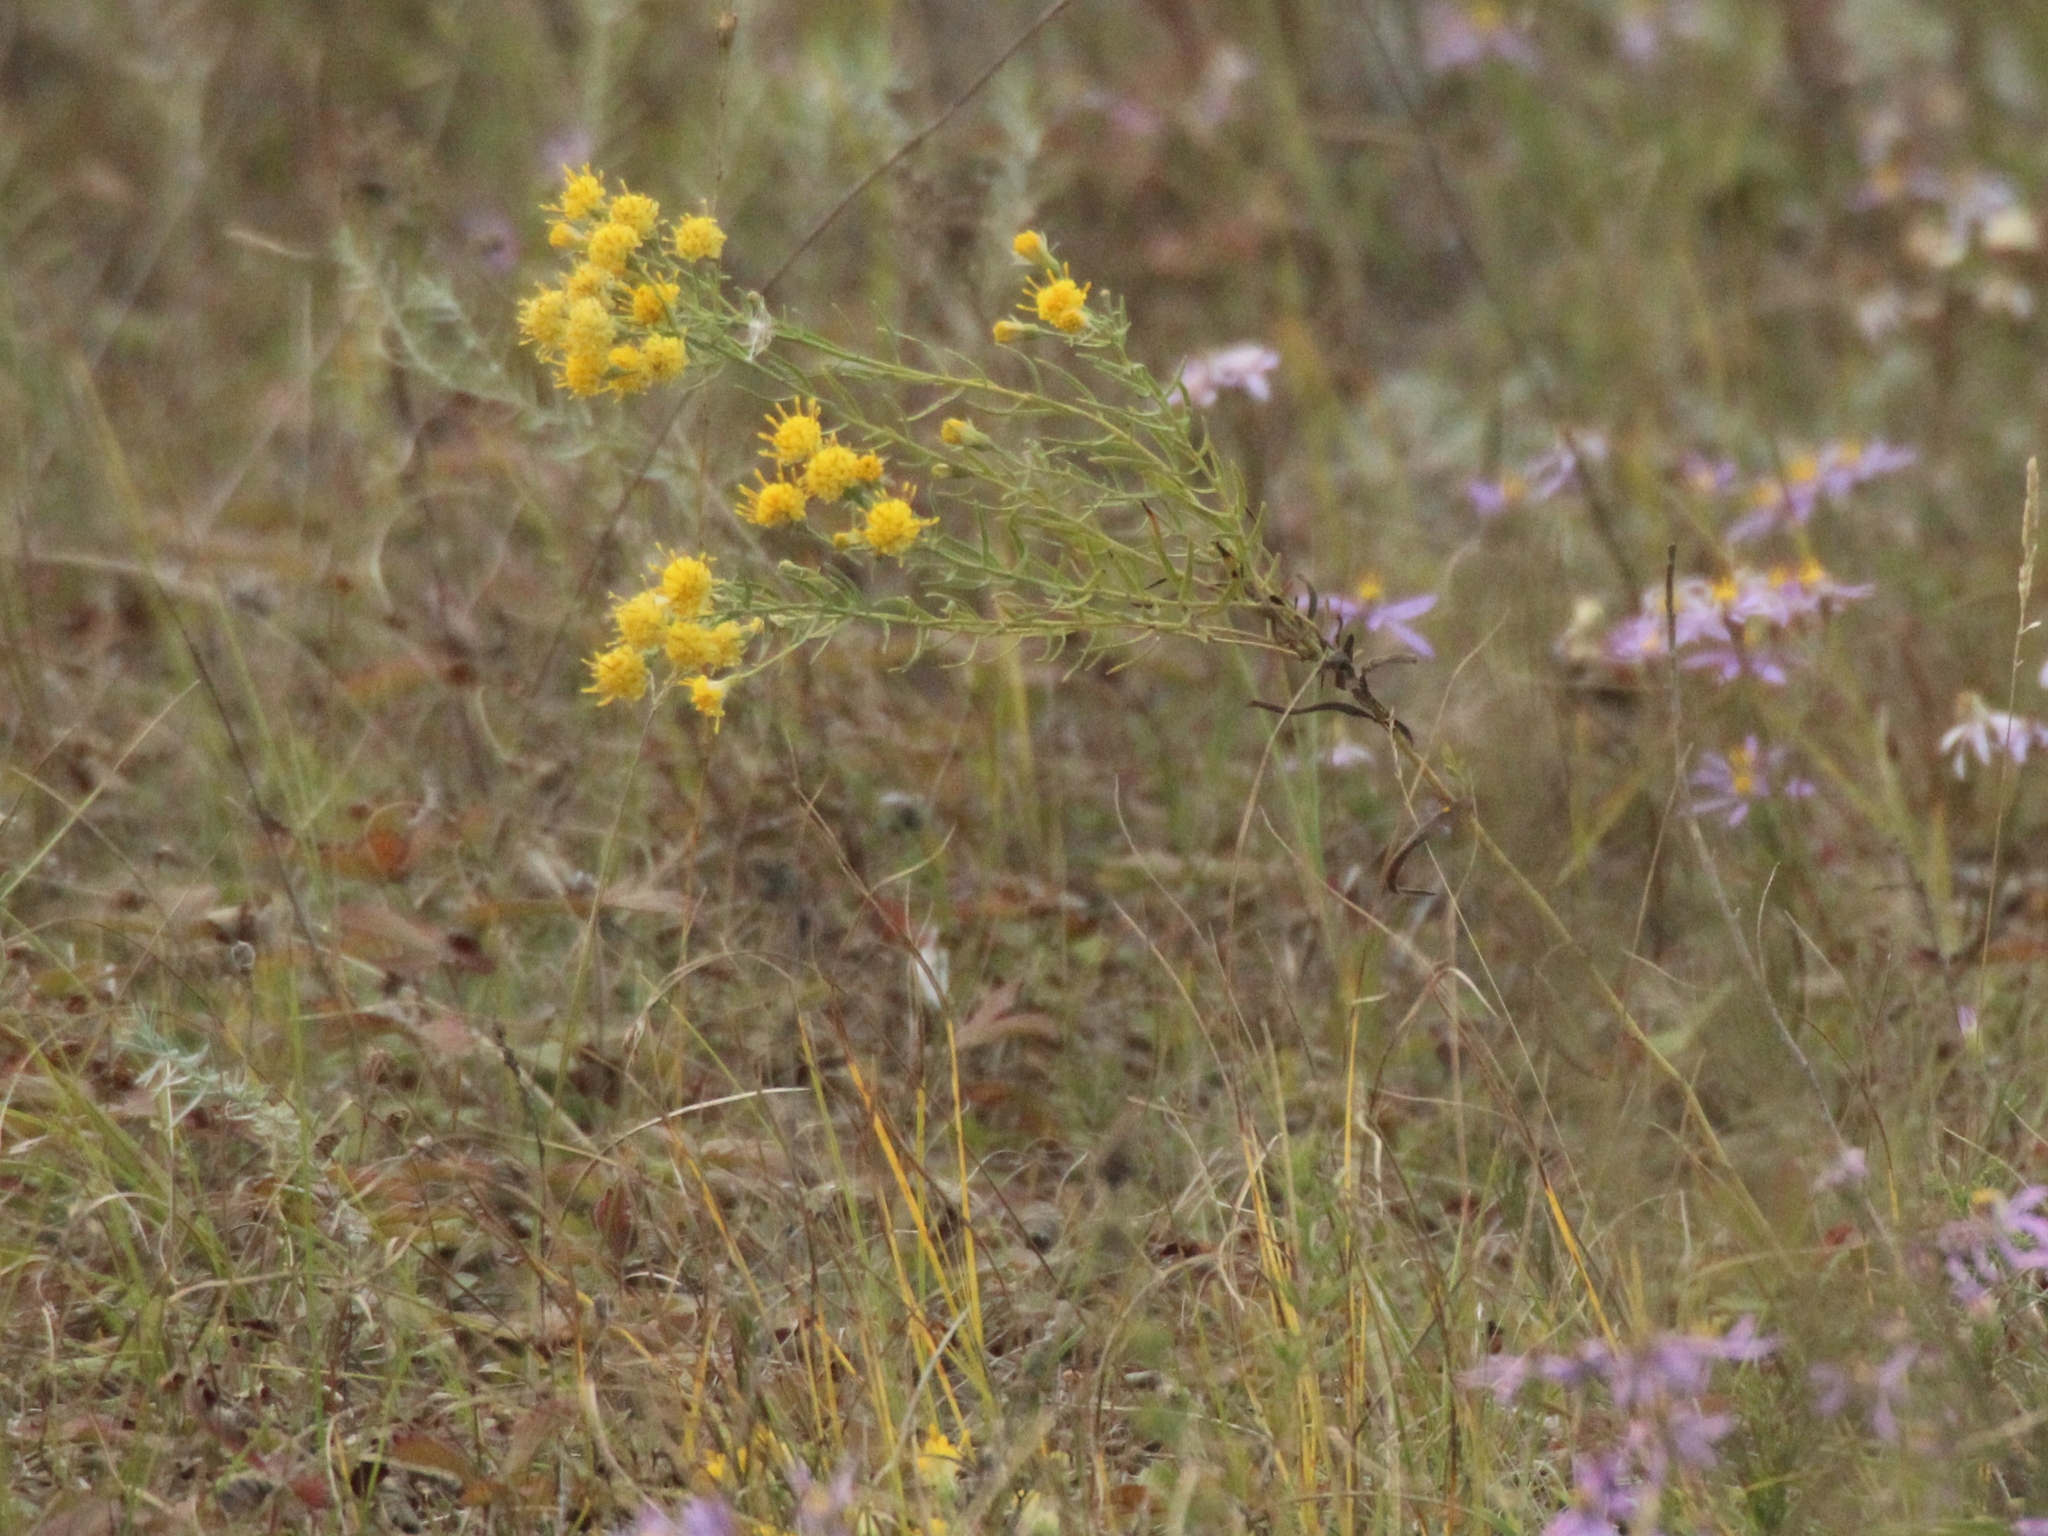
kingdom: Plantae
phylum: Tracheophyta
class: Magnoliopsida
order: Asterales
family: Asteraceae
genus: Galatella
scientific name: Galatella biflora
